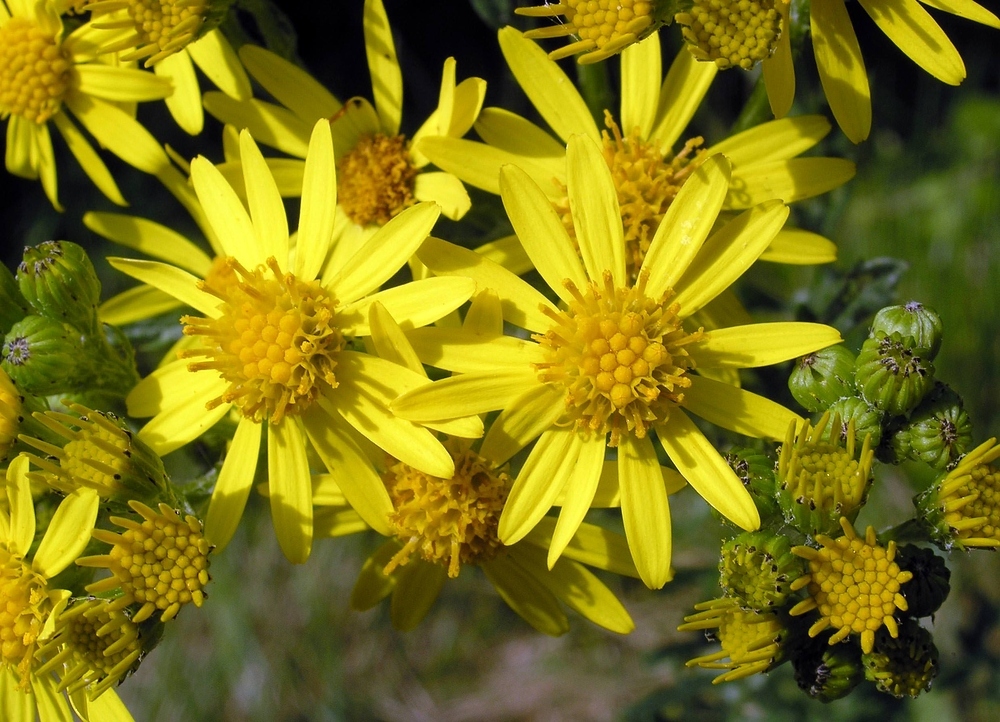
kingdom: Plantae
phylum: Tracheophyta
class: Magnoliopsida
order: Asterales
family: Asteraceae
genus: Jacobaea
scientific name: Jacobaea vulgaris
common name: Stinking willie
